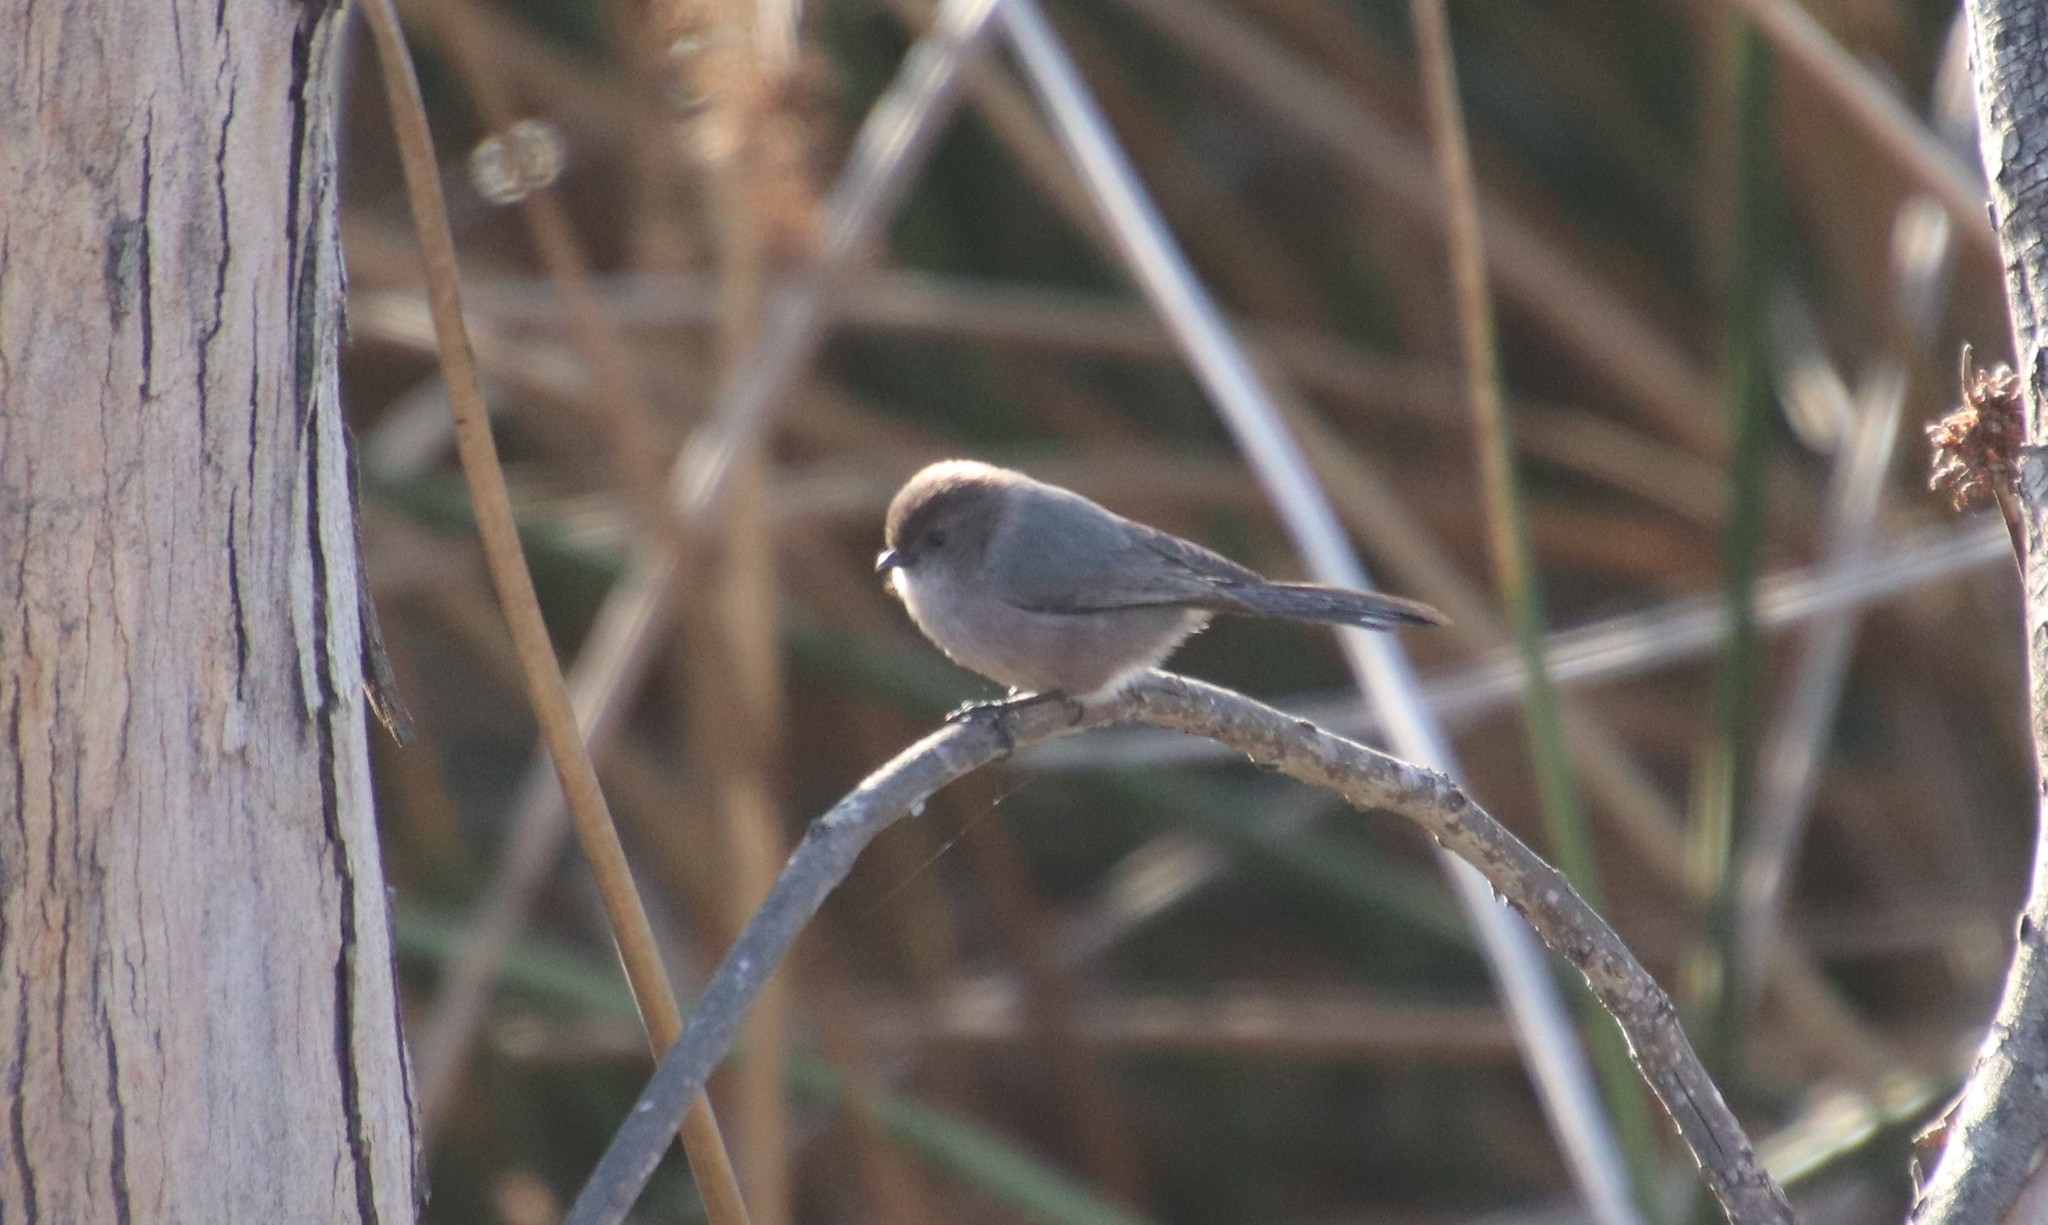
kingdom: Animalia
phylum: Chordata
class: Aves
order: Passeriformes
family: Aegithalidae
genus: Psaltriparus
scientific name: Psaltriparus minimus
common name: American bushtit
